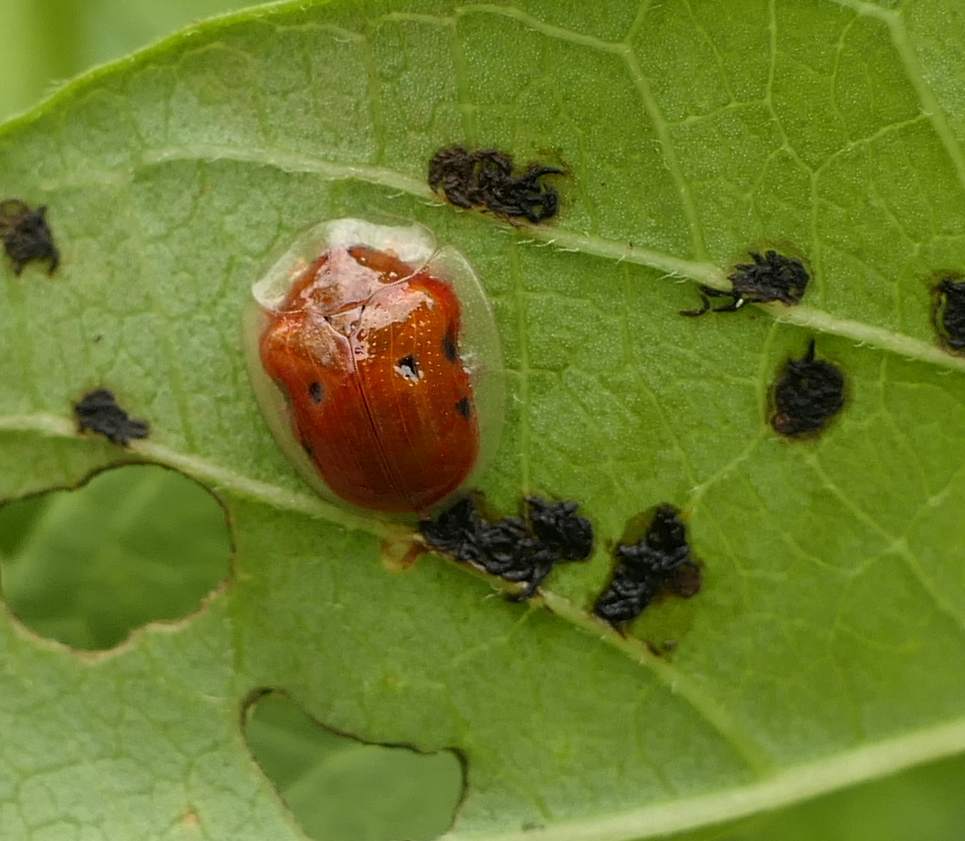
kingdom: Animalia
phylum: Arthropoda
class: Insecta
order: Coleoptera
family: Chrysomelidae
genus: Charidotella
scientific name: Charidotella sexpunctata
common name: Golden tortoise beetle
